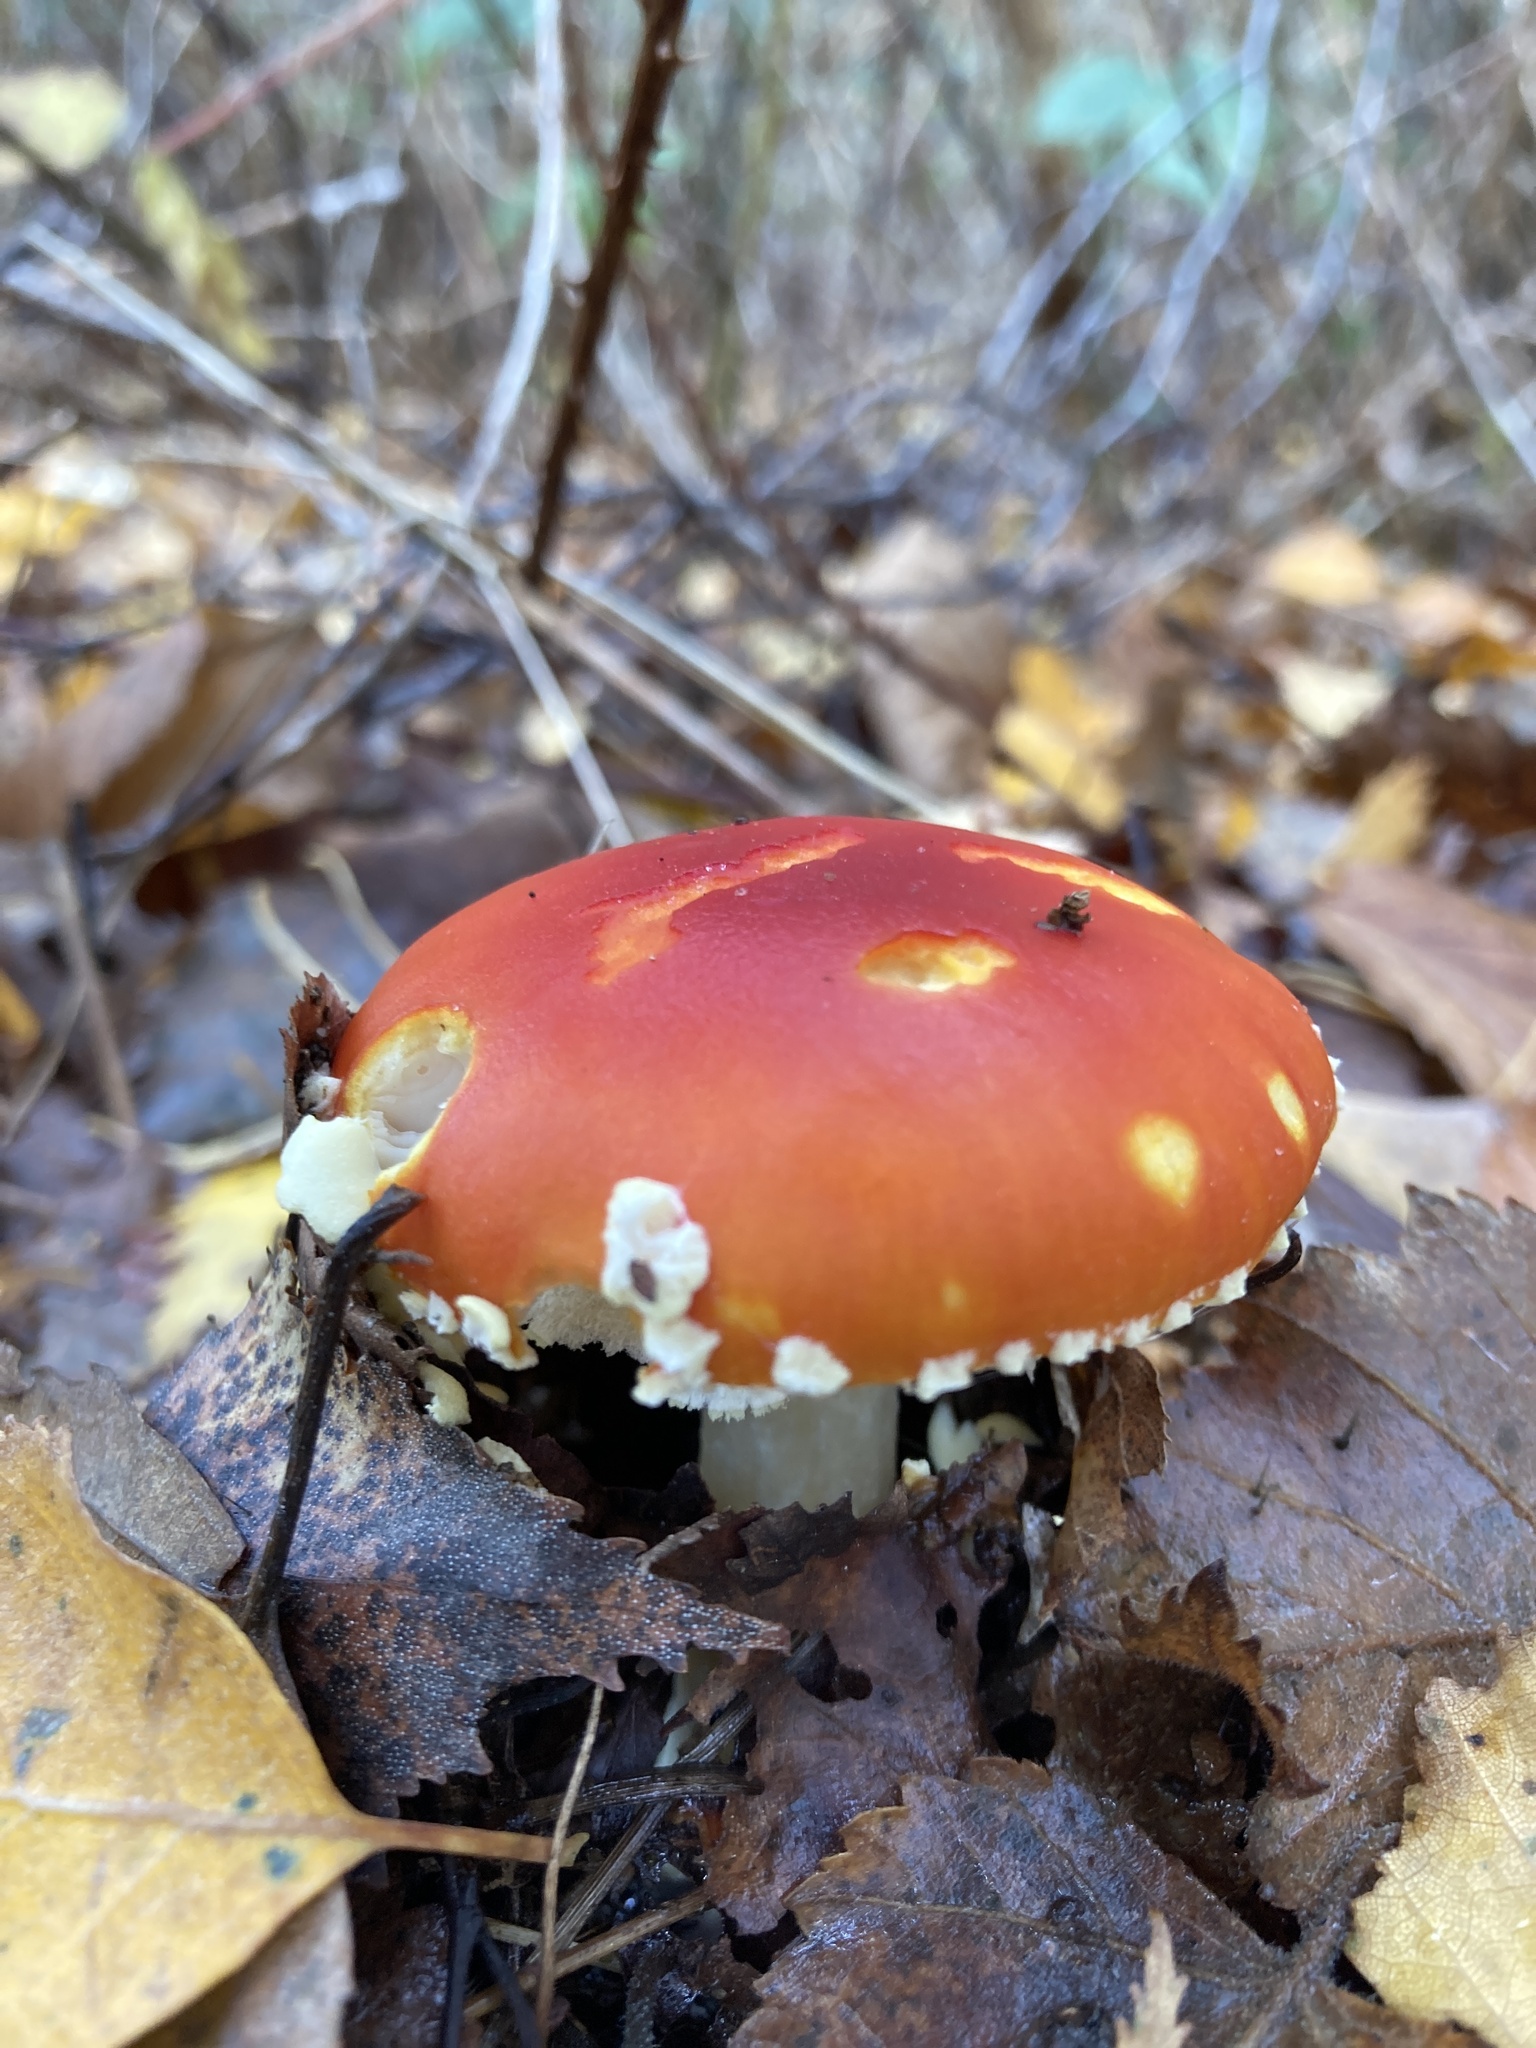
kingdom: Fungi
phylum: Basidiomycota
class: Agaricomycetes
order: Agaricales
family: Amanitaceae
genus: Amanita
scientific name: Amanita muscaria
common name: Fly agaric
